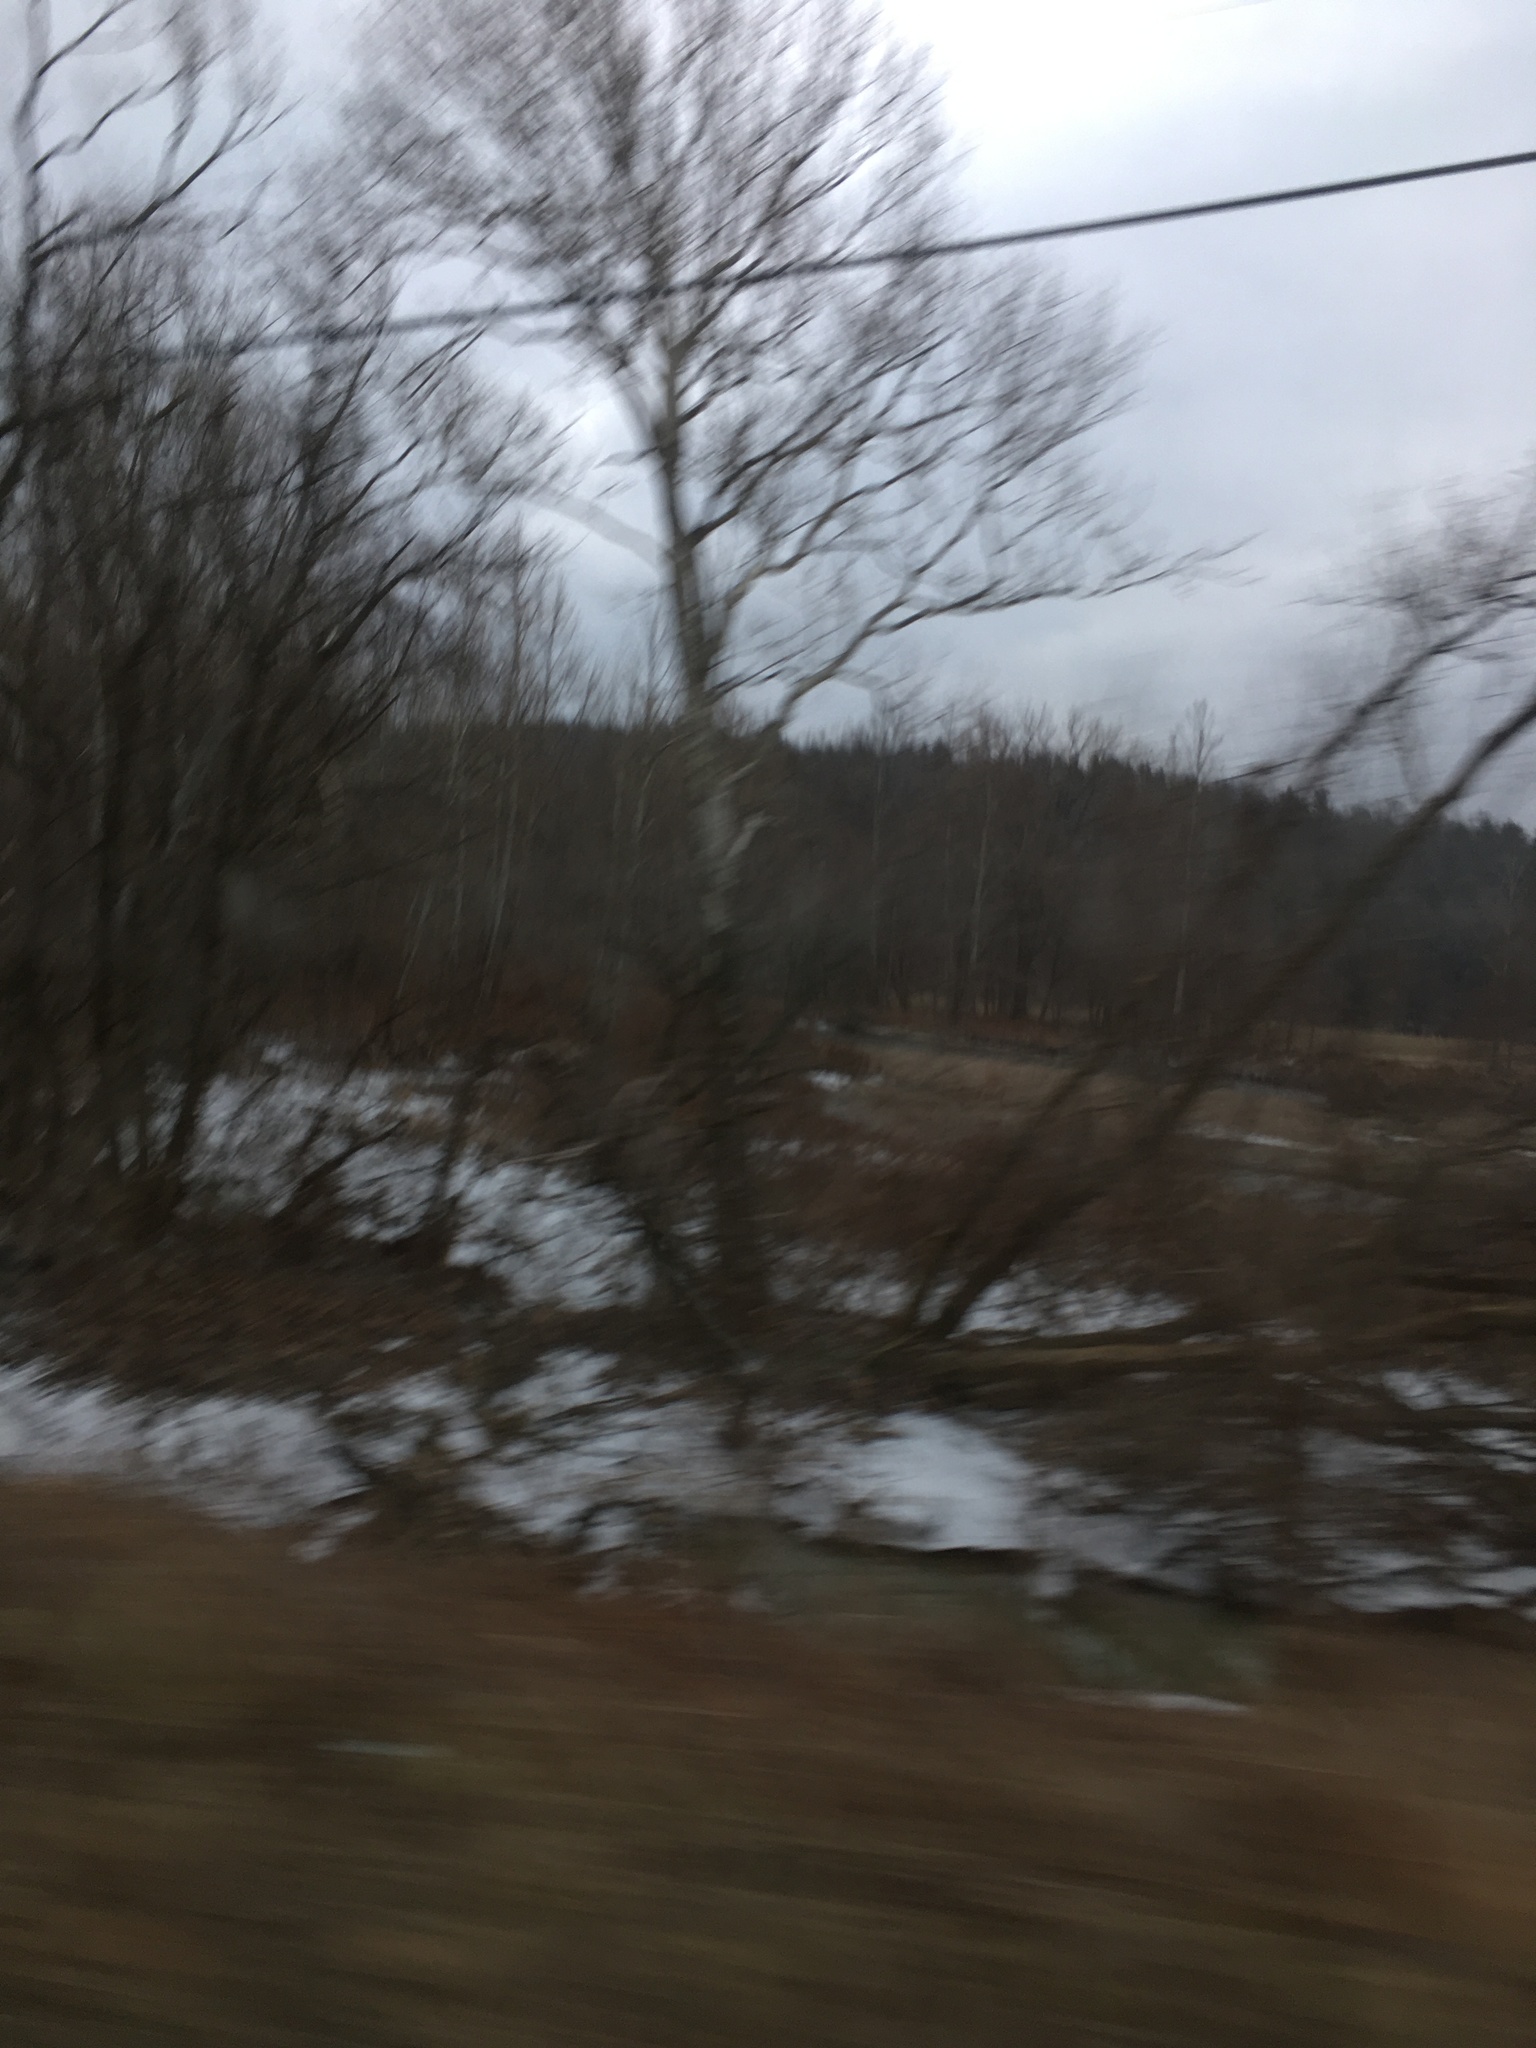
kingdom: Plantae
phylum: Tracheophyta
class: Magnoliopsida
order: Proteales
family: Platanaceae
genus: Platanus
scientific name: Platanus occidentalis
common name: American sycamore
